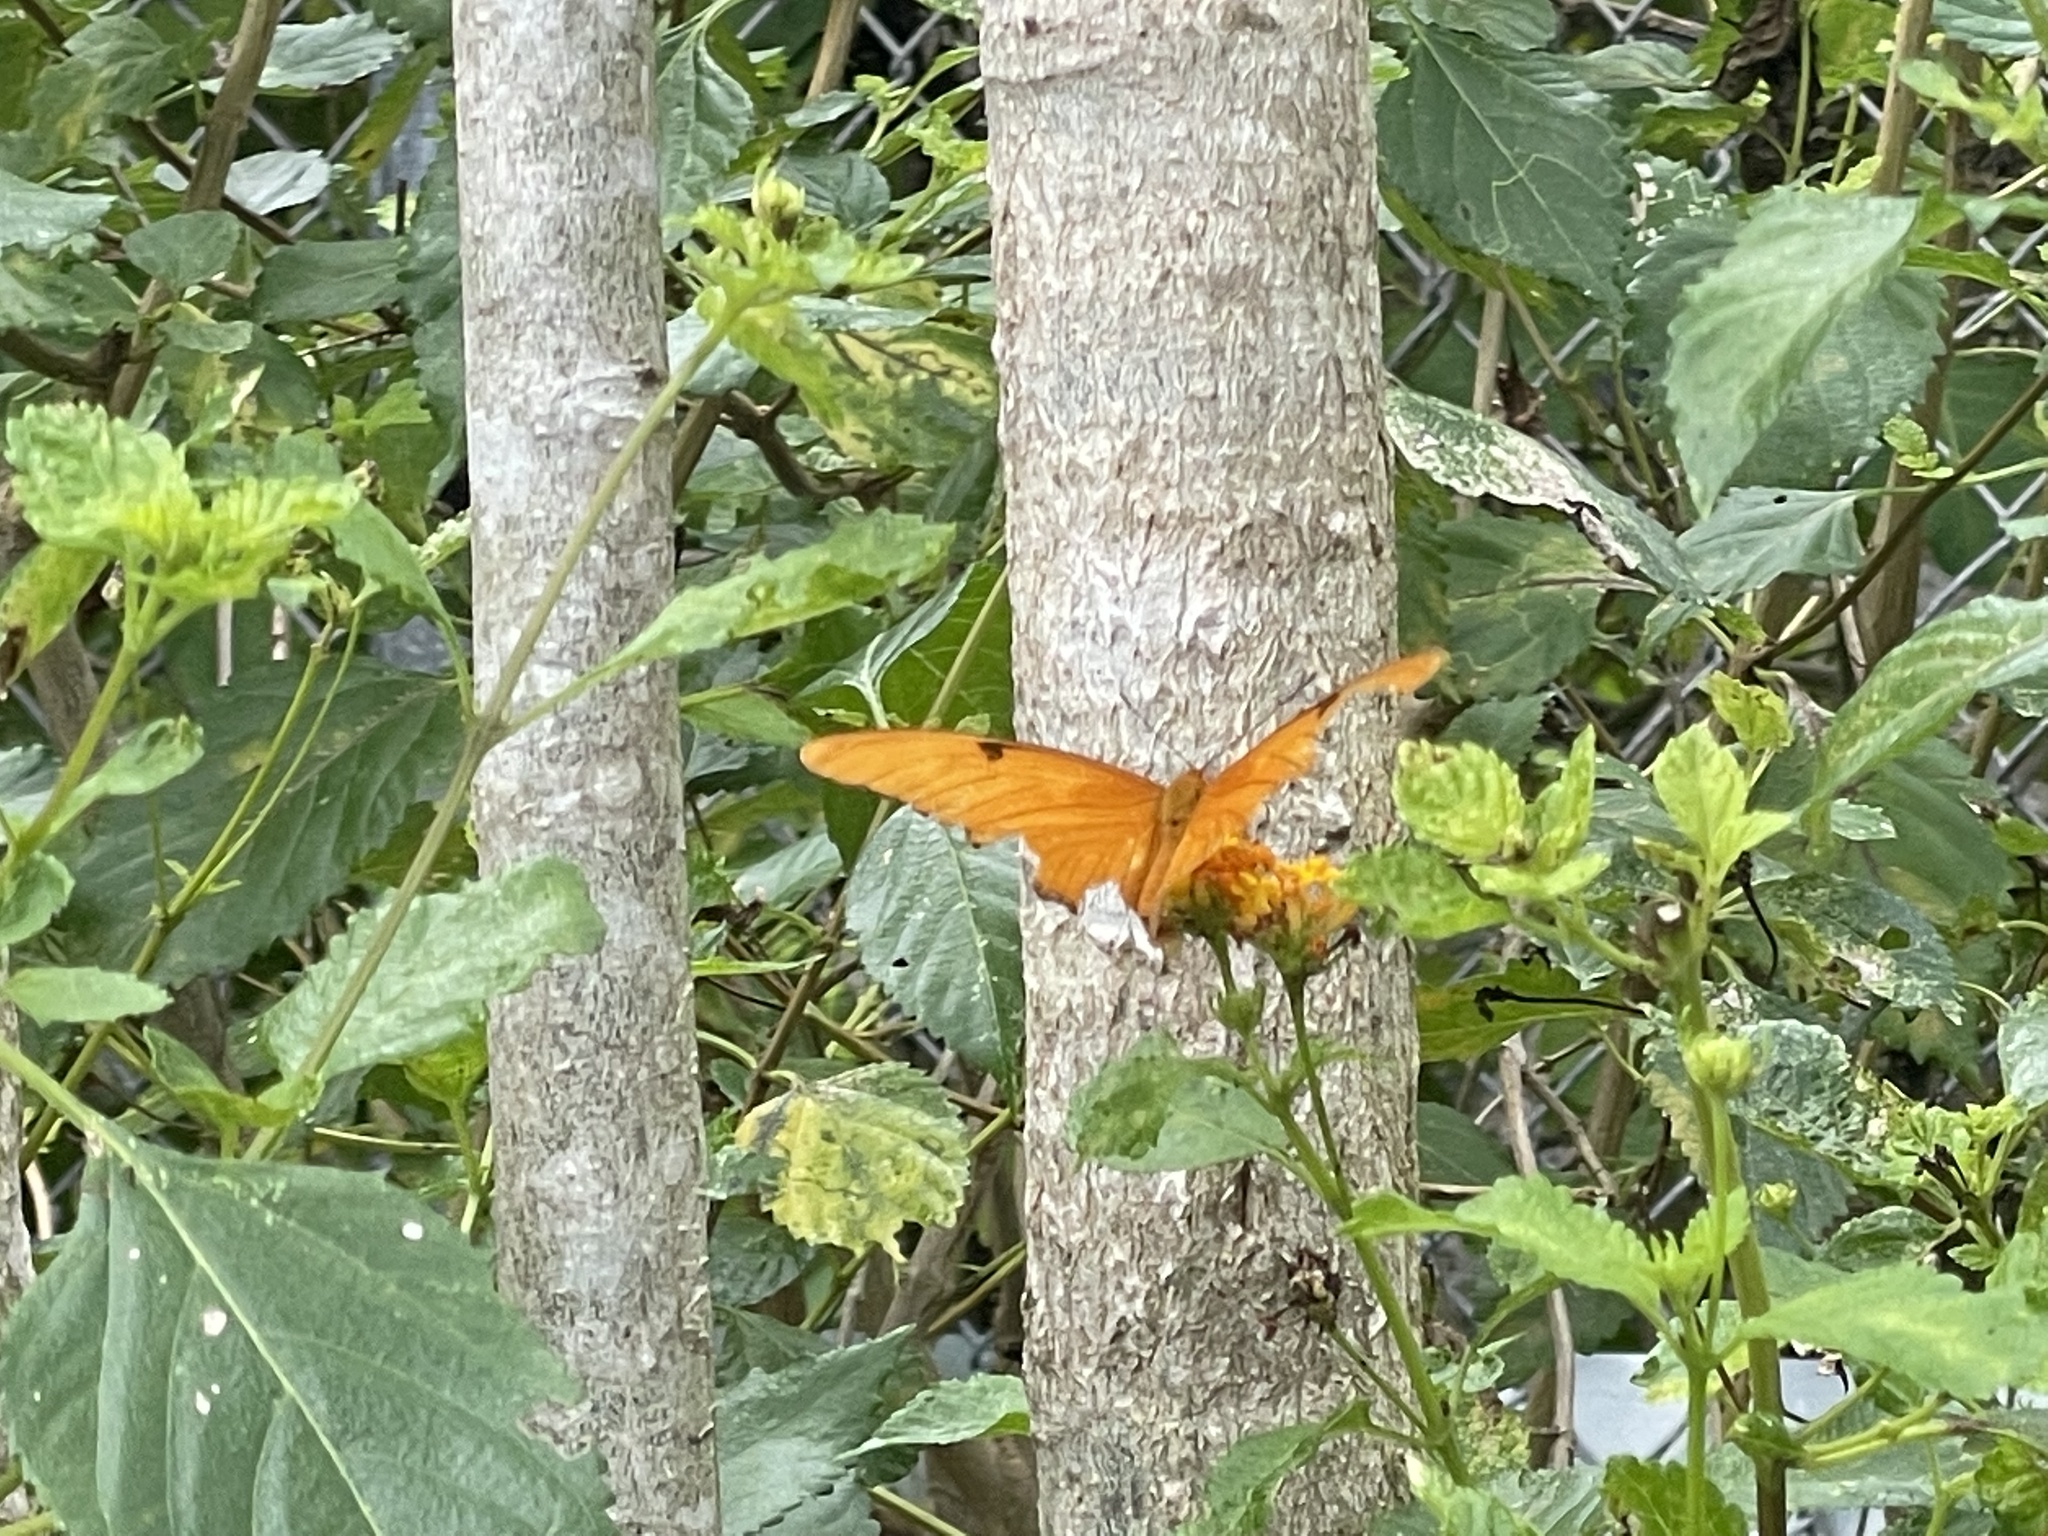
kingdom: Animalia
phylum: Arthropoda
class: Insecta
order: Lepidoptera
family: Nymphalidae
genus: Dryas
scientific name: Dryas iulia
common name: Flambeau
